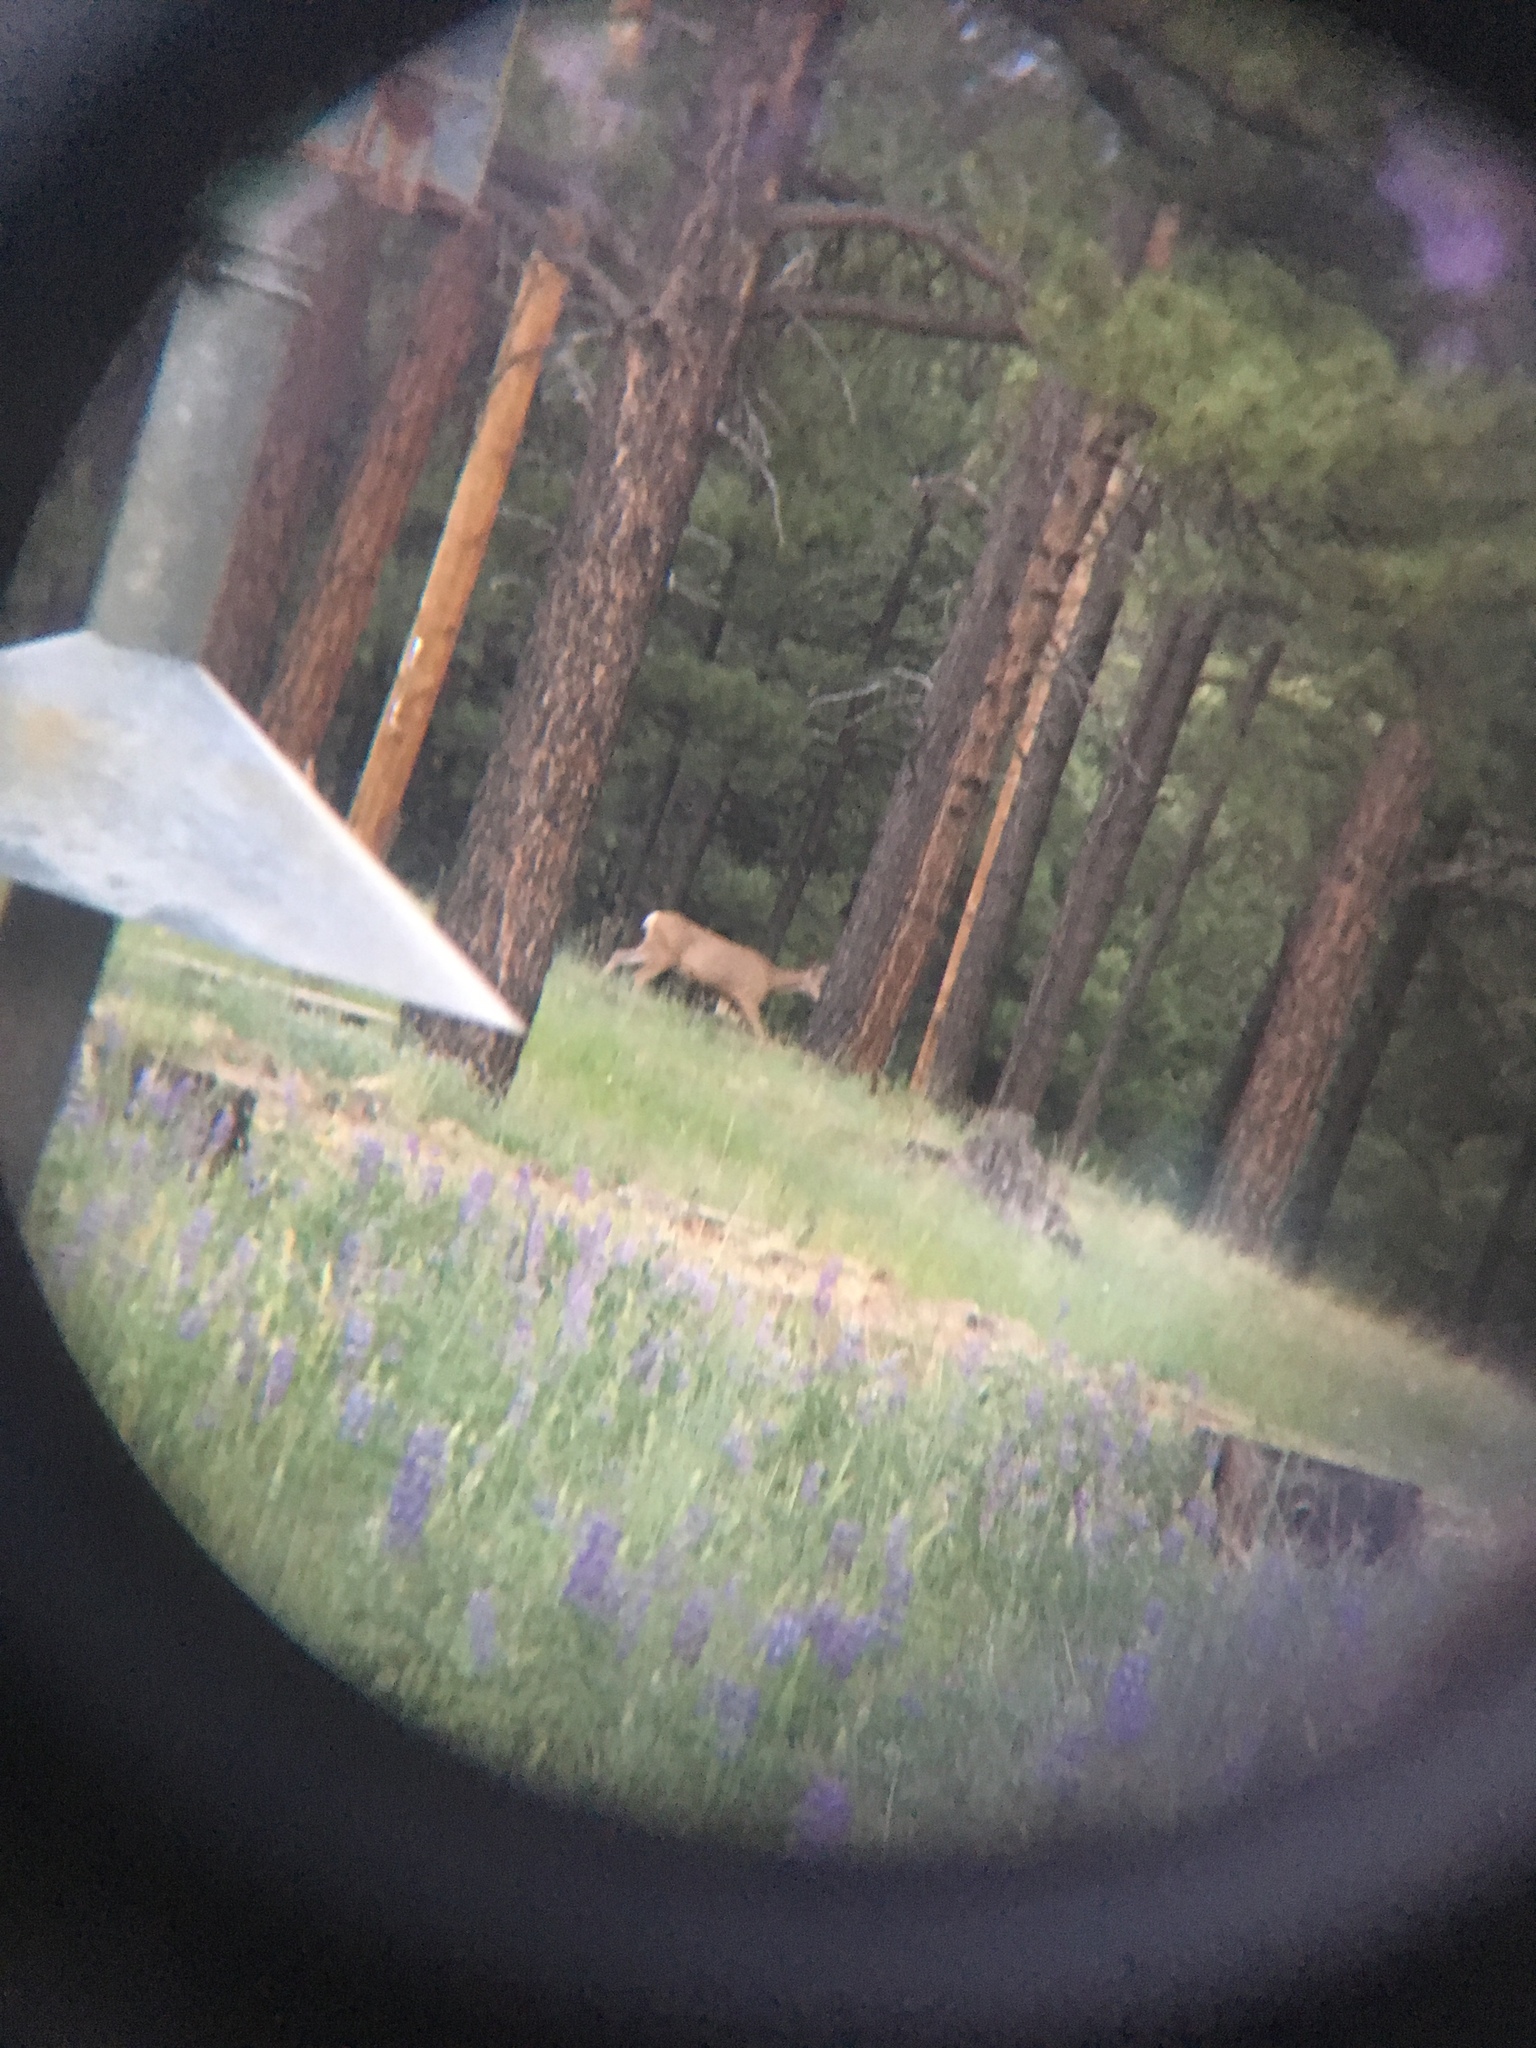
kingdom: Animalia
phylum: Chordata
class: Mammalia
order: Artiodactyla
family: Cervidae
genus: Odocoileus
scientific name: Odocoileus hemionus
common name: Mule deer
